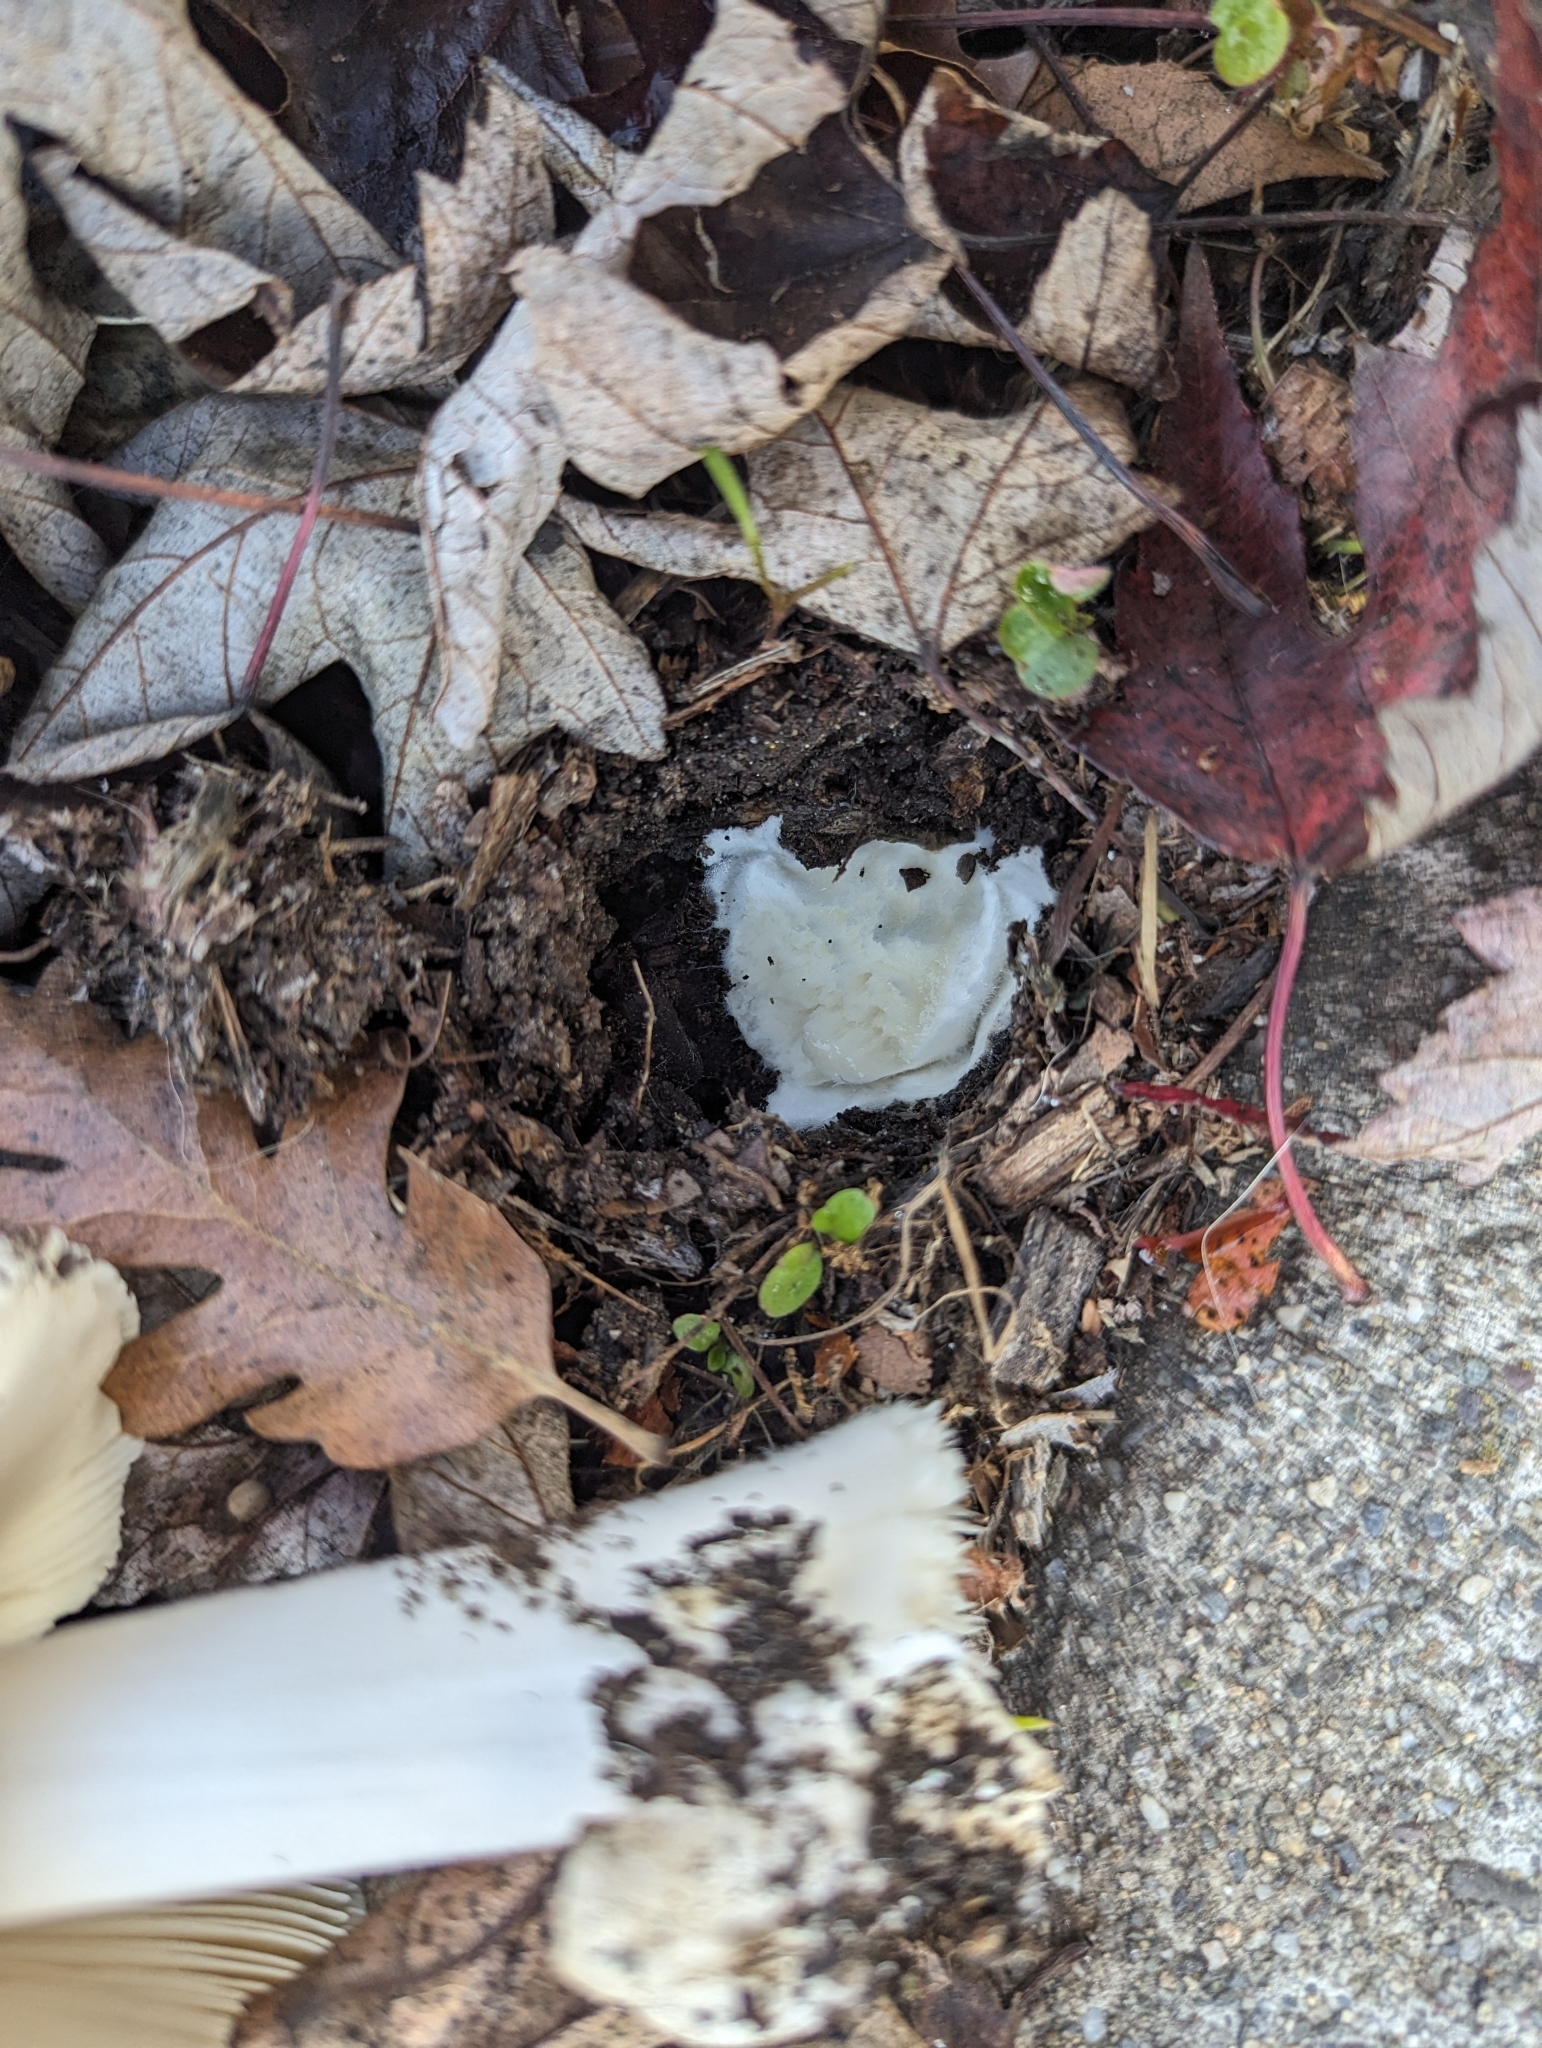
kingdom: Fungi
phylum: Basidiomycota
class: Agaricomycetes
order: Agaricales
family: Pluteaceae
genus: Volvopluteus
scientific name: Volvopluteus gloiocephalus
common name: Stubble rosegill
